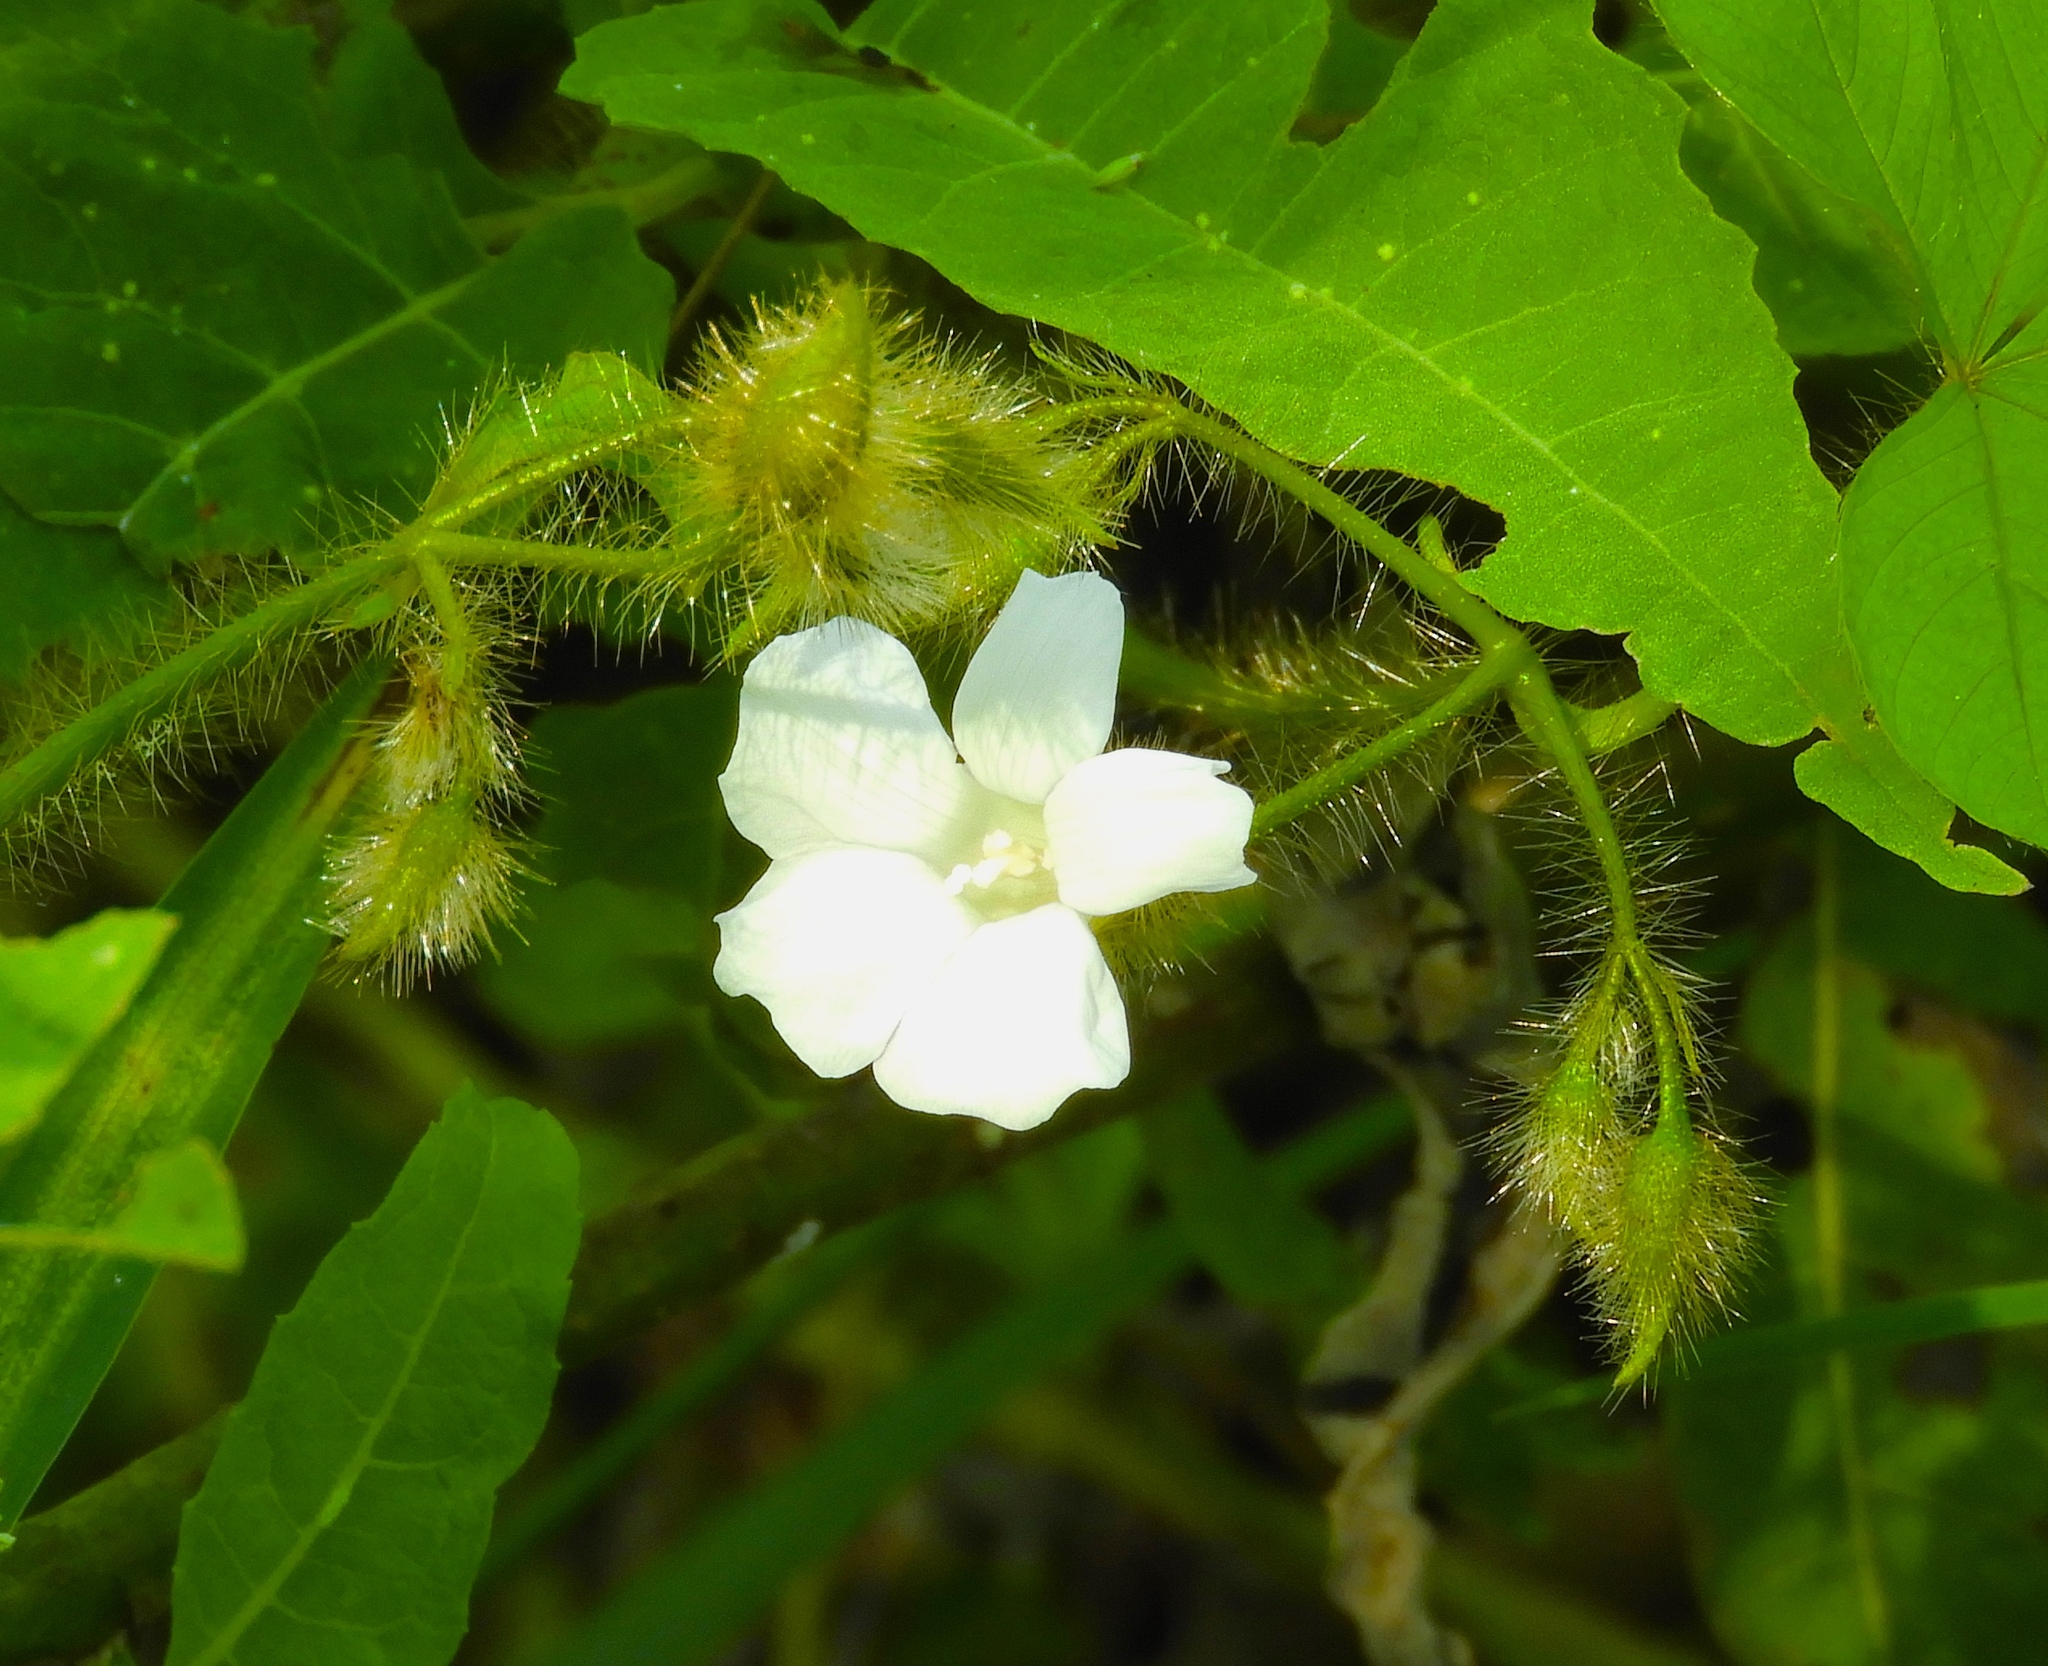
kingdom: Plantae
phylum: Tracheophyta
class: Magnoliopsida
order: Solanales
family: Convolvulaceae
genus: Distimake
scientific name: Distimake aegyptius
